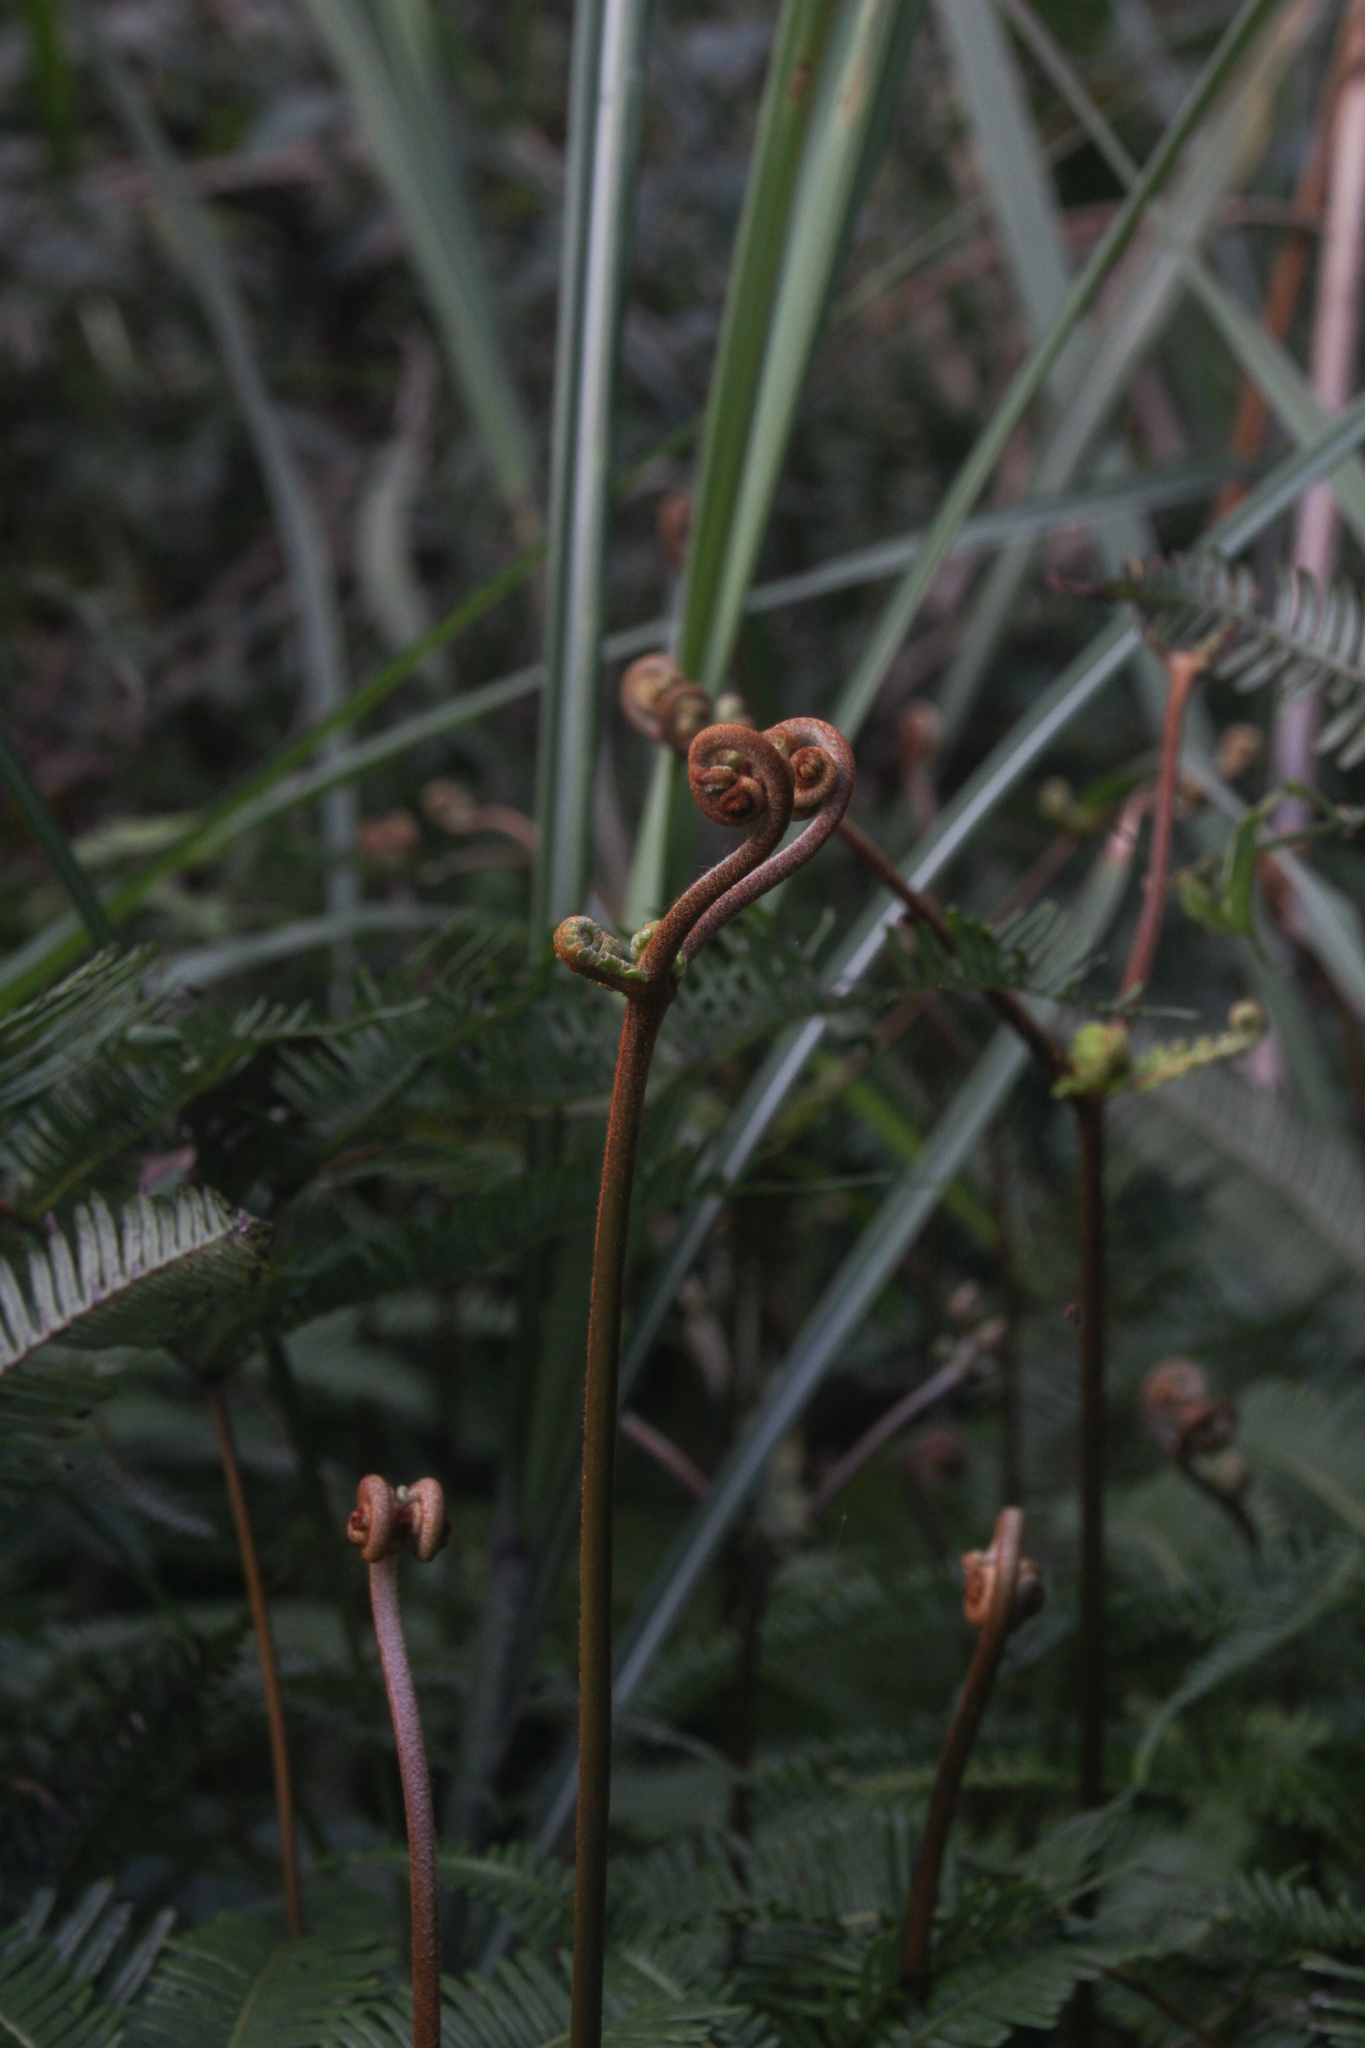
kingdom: Plantae
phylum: Tracheophyta
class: Polypodiopsida
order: Gleicheniales
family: Gleicheniaceae
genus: Dicranopteris
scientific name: Dicranopteris linearis
